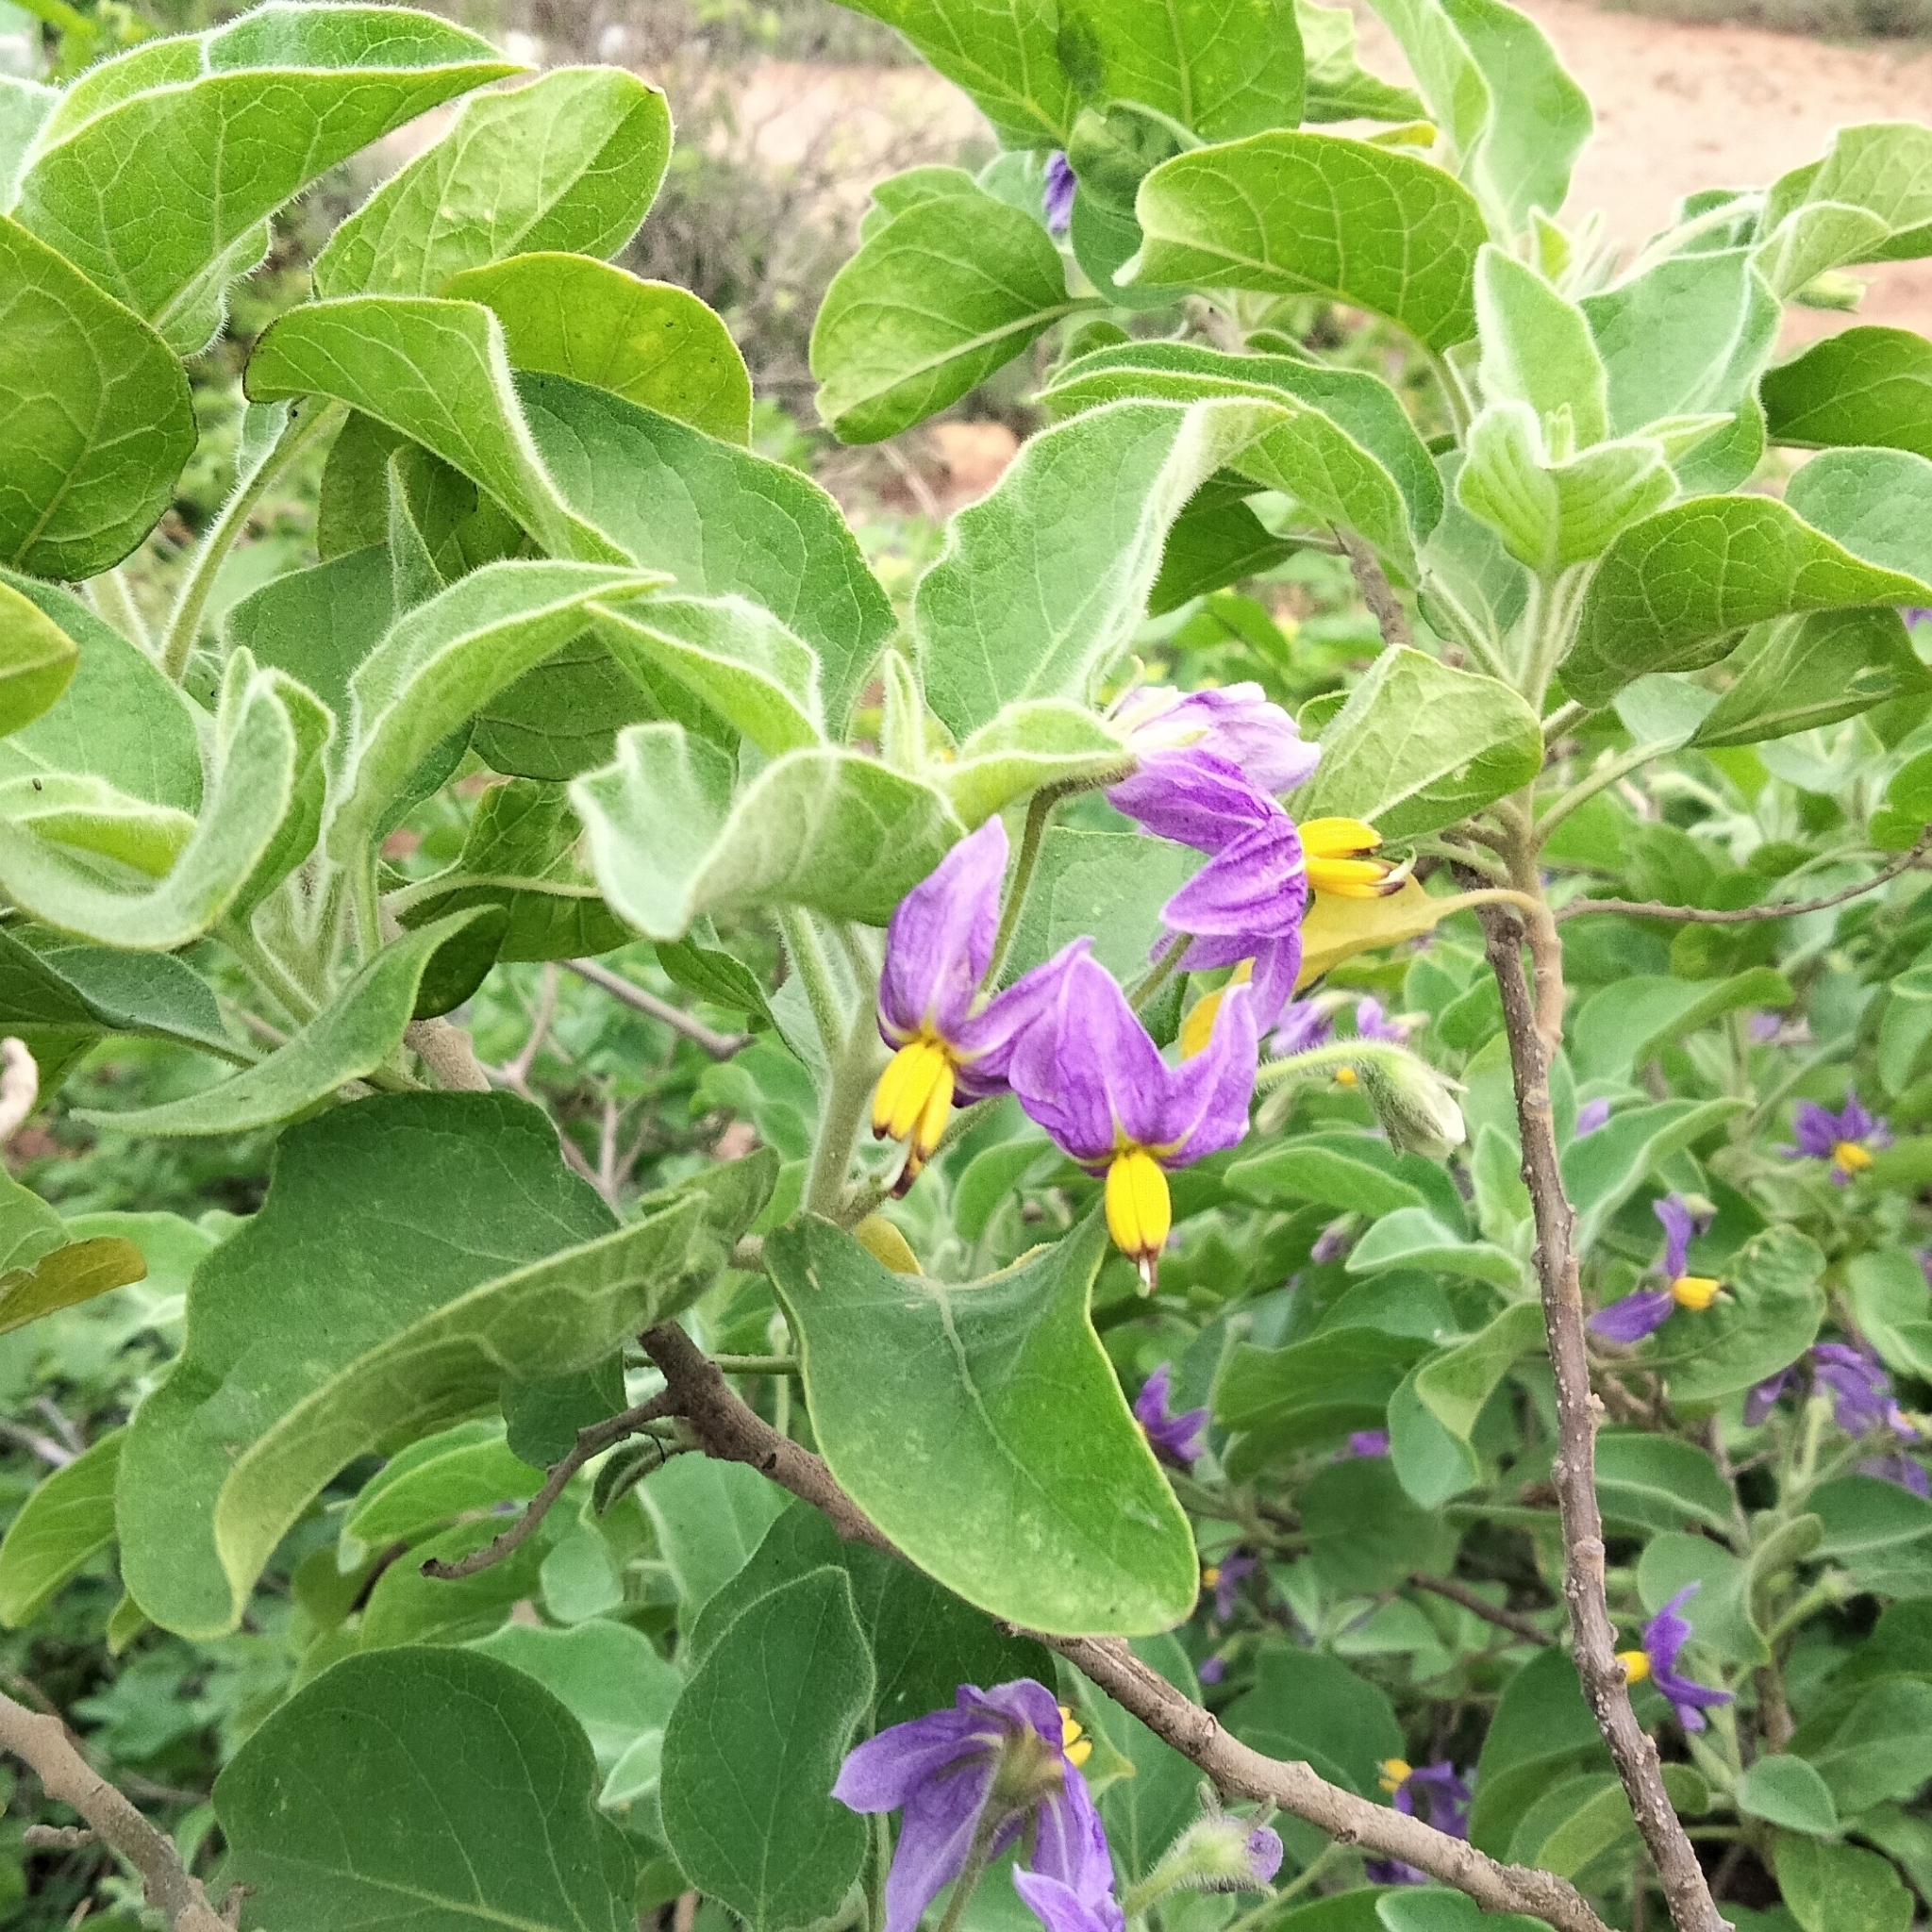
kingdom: Plantae
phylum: Tracheophyta
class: Magnoliopsida
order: Solanales
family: Solanaceae
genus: Solanum
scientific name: Solanum pubescens
